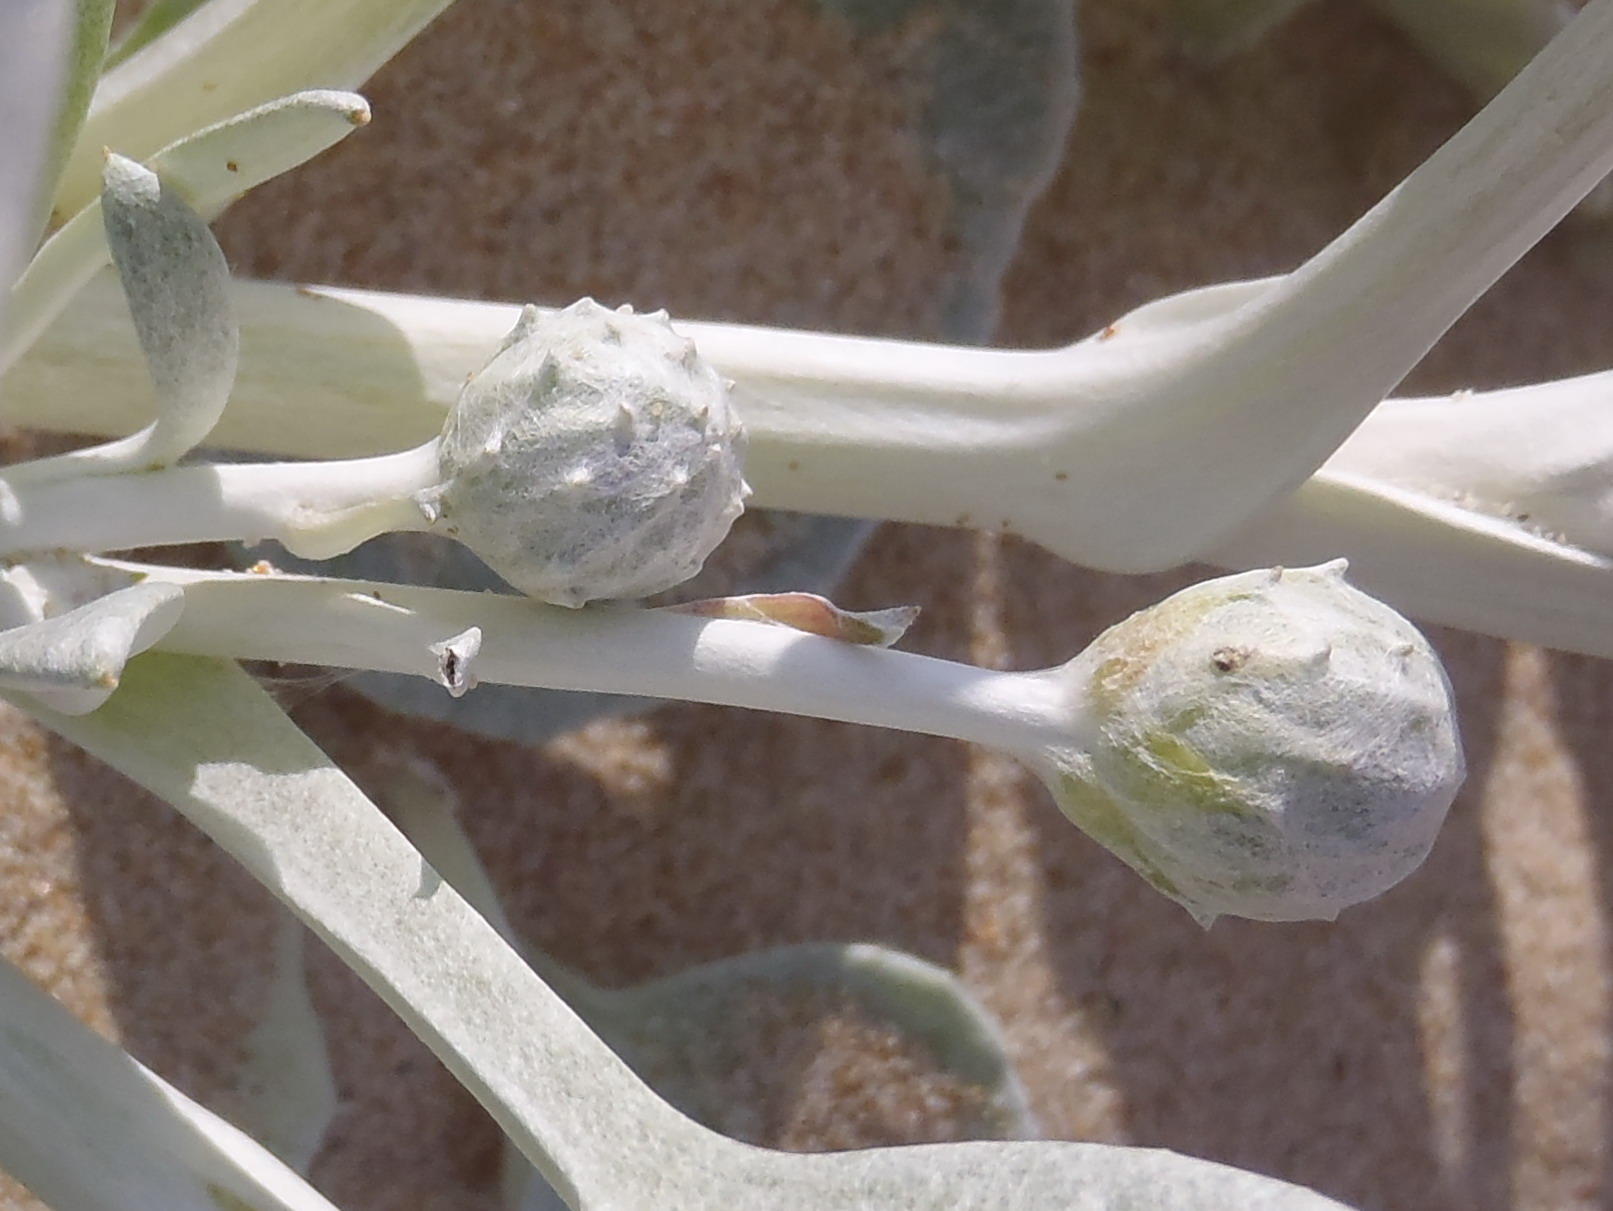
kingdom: Plantae
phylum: Tracheophyta
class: Magnoliopsida
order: Asterales
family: Asteraceae
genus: Arctotheca
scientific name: Arctotheca populifolia
